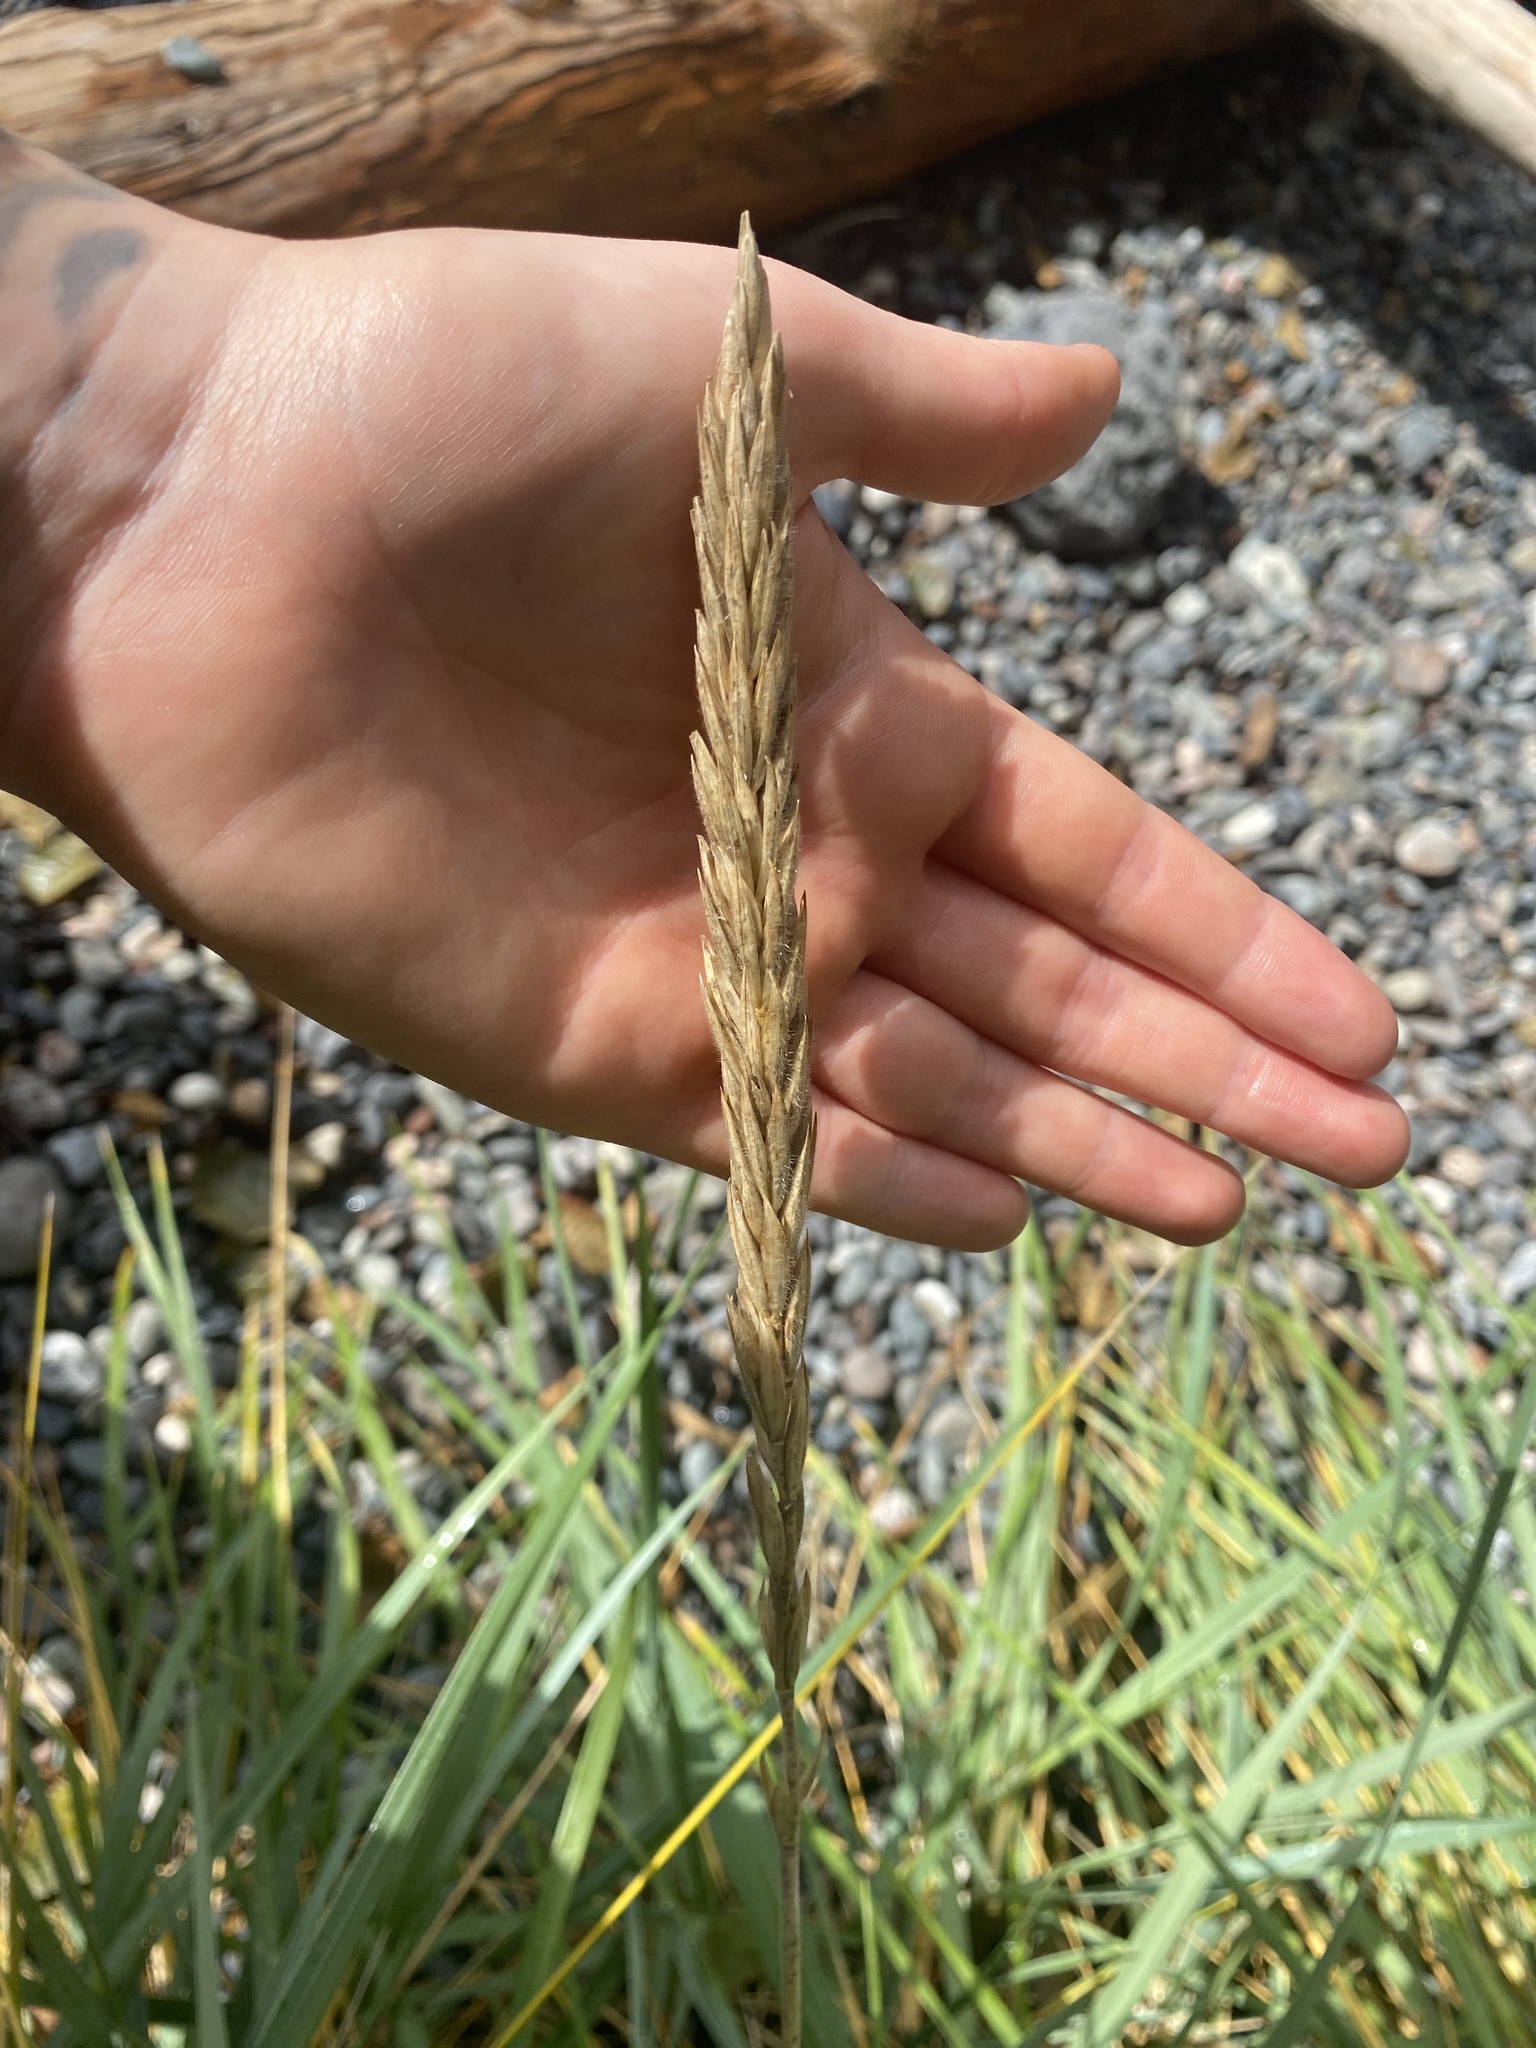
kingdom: Plantae
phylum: Tracheophyta
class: Liliopsida
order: Poales
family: Poaceae
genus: Leymus
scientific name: Leymus mollis
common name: American dune grass
